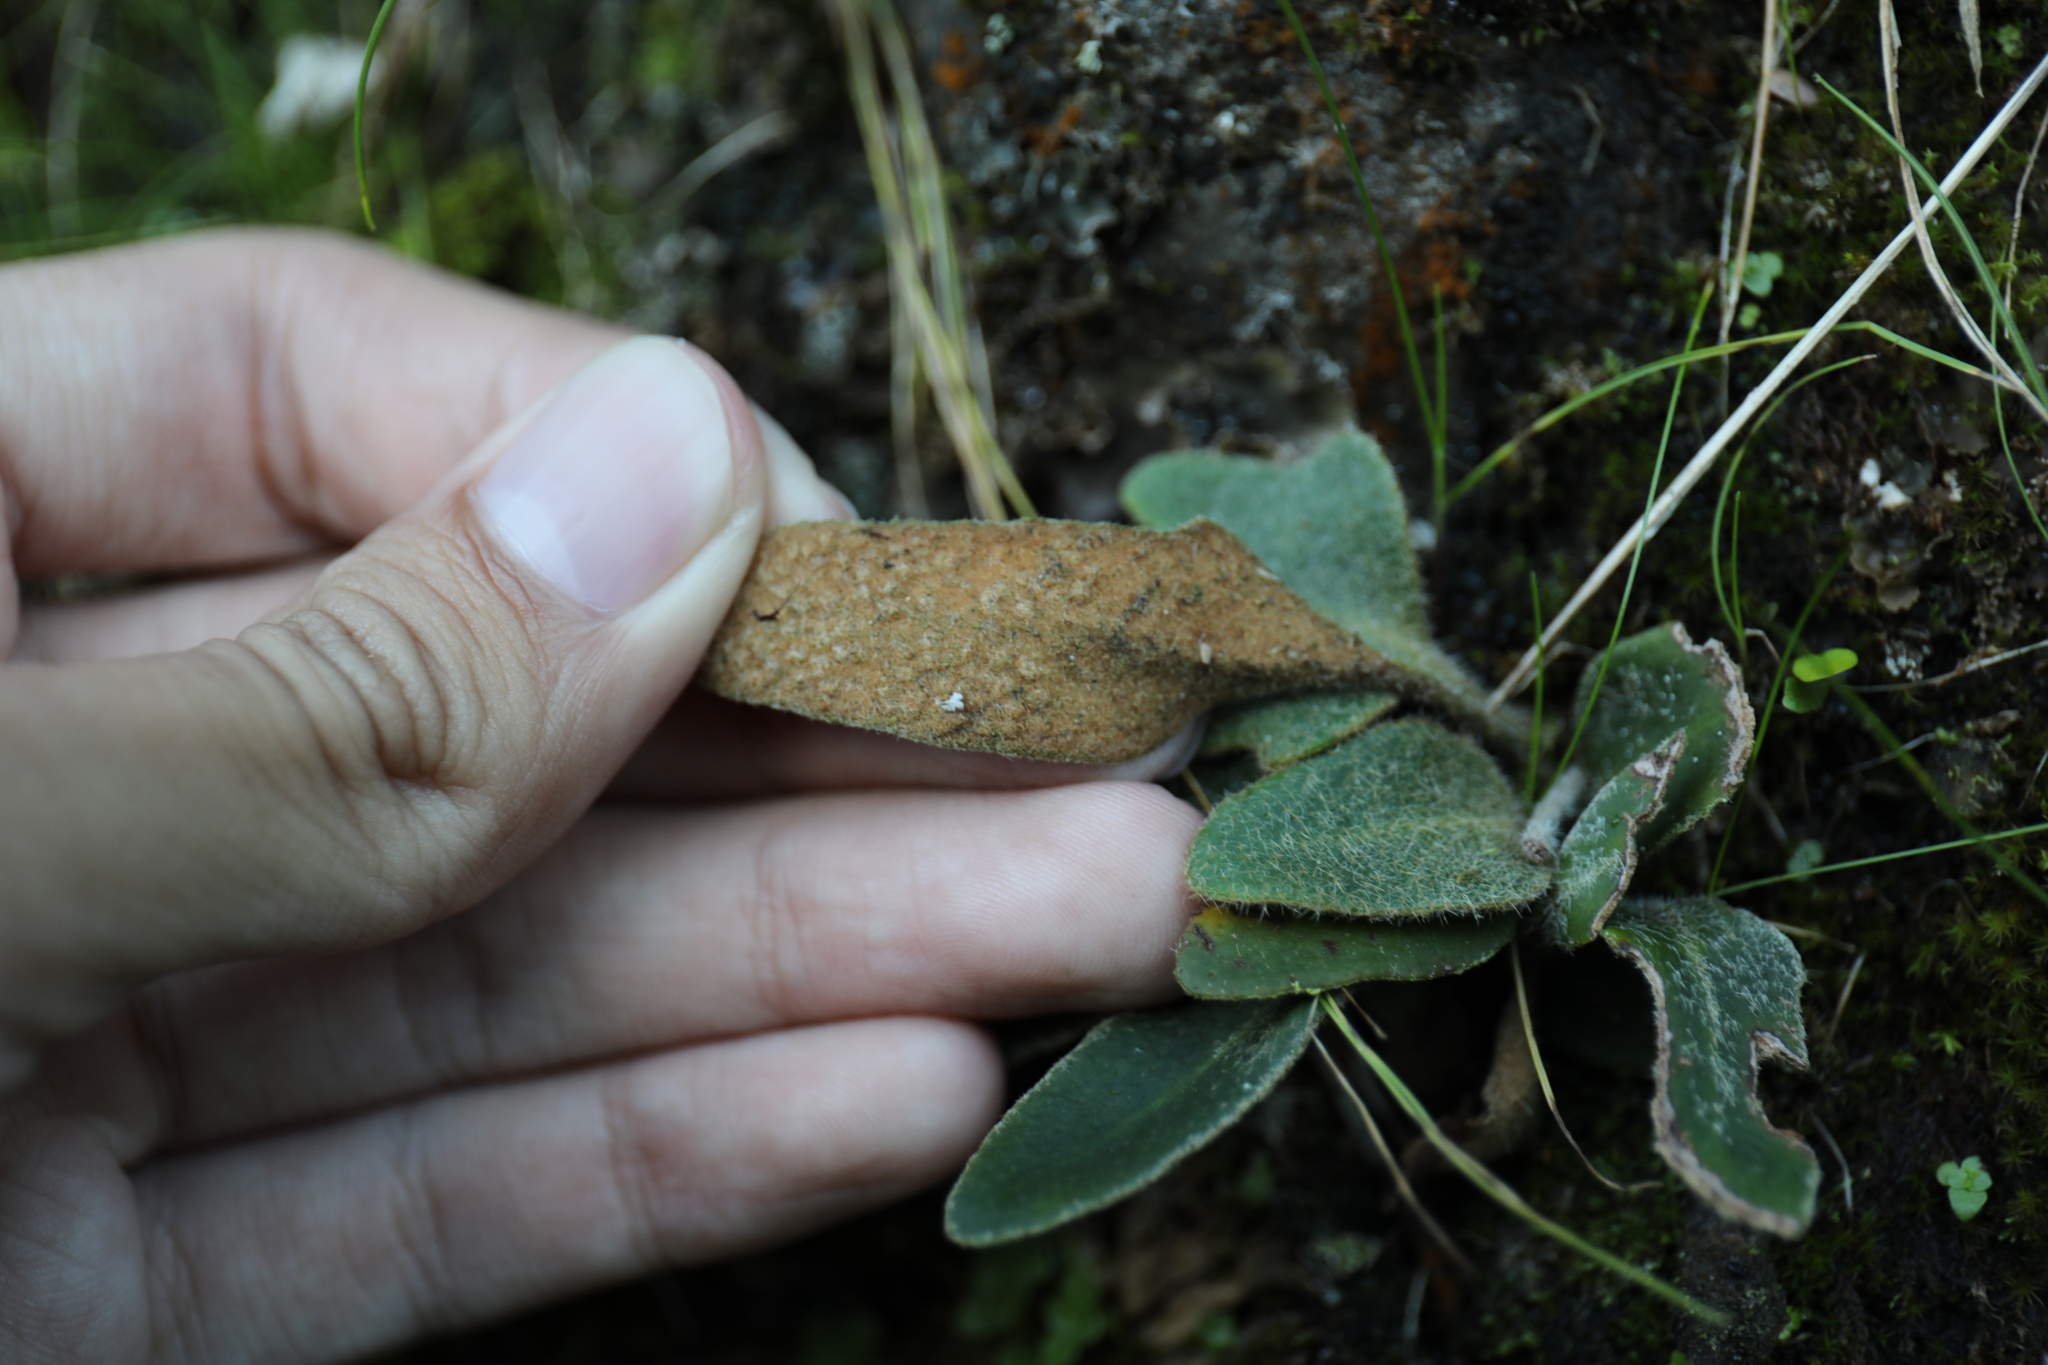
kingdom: Plantae
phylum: Tracheophyta
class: Polypodiopsida
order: Polypodiales
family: Polypodiaceae
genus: Pyrrosia
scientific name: Pyrrosia polydactyla
